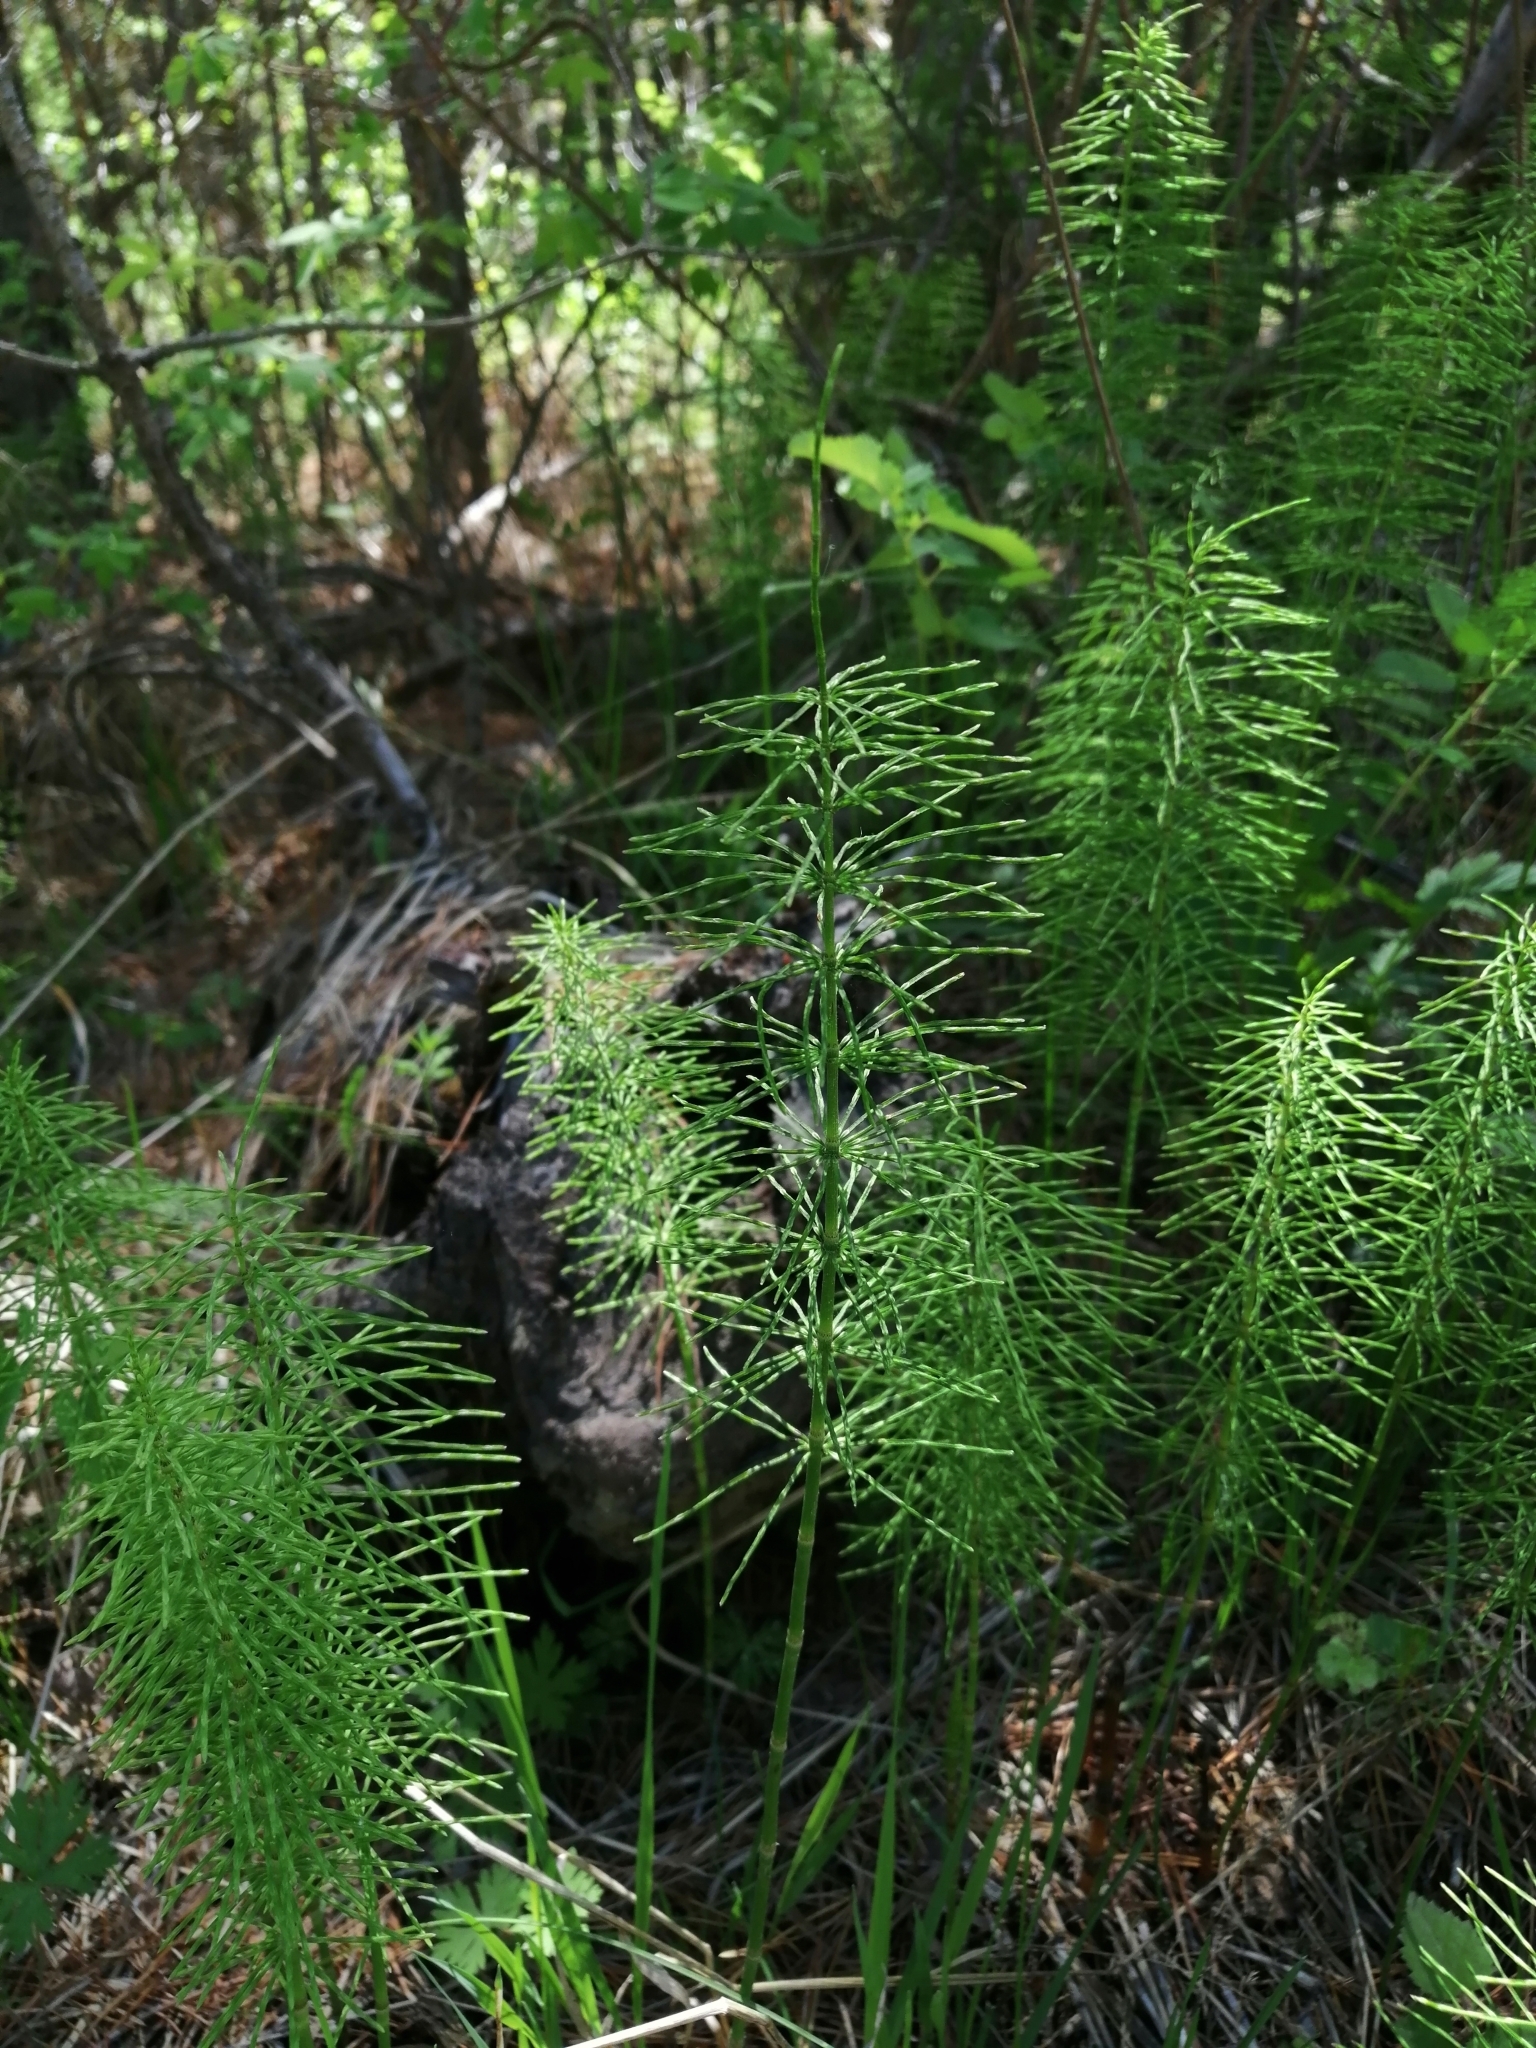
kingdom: Plantae
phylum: Tracheophyta
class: Polypodiopsida
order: Equisetales
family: Equisetaceae
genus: Equisetum
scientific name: Equisetum pratense
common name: Meadow horsetail
